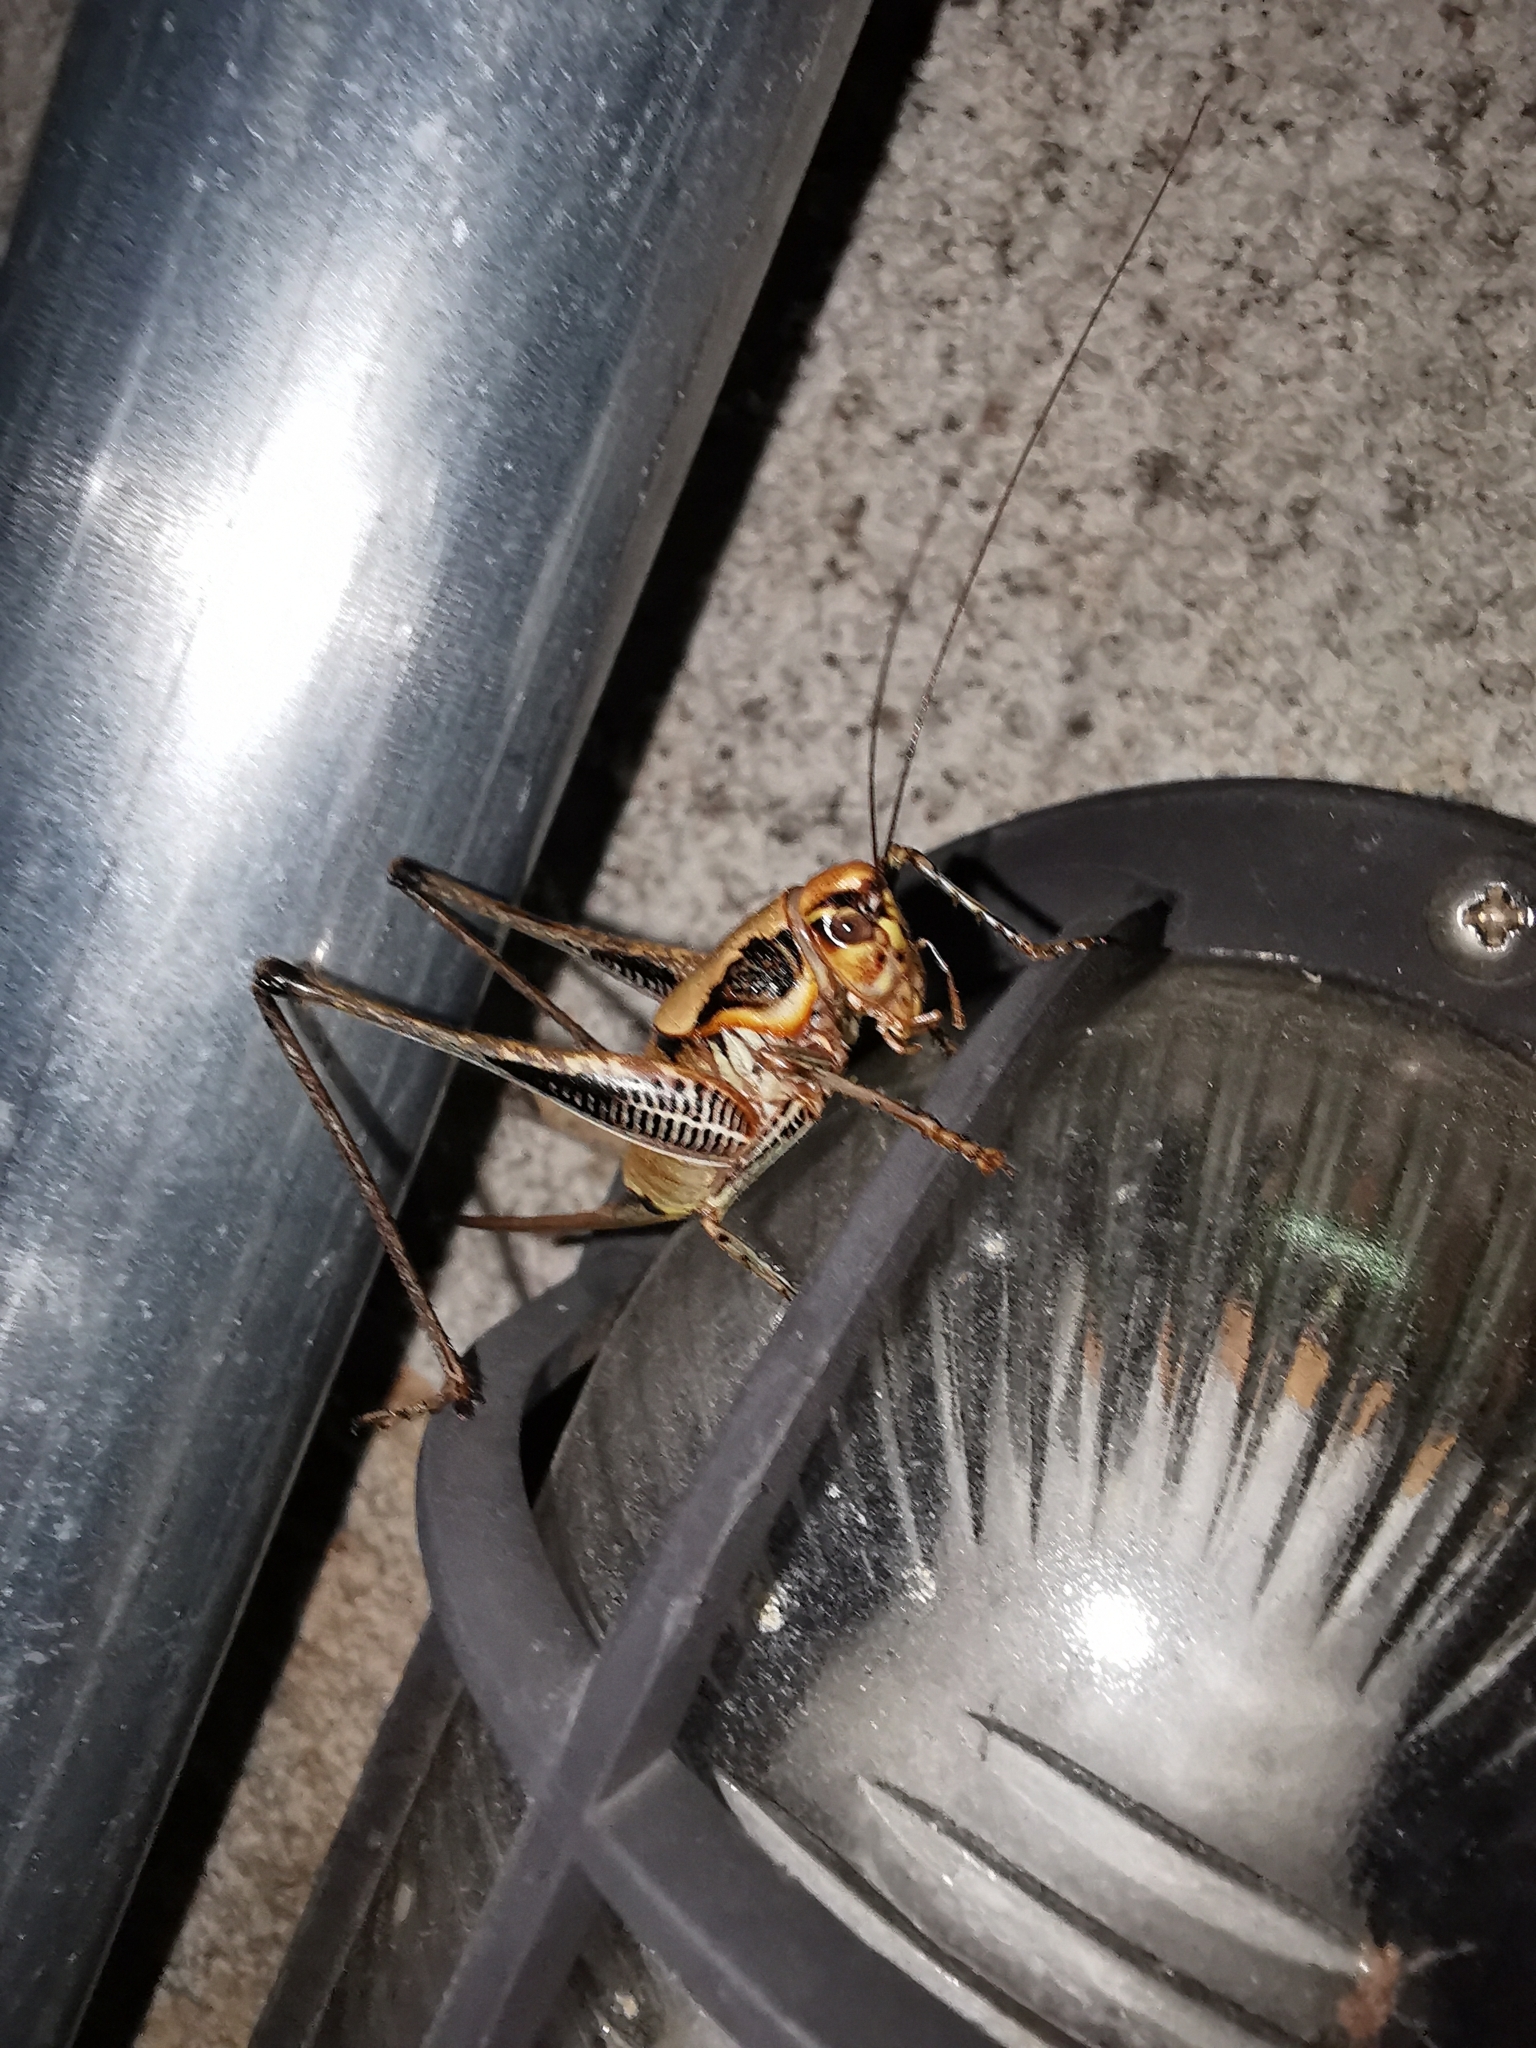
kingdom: Animalia
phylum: Arthropoda
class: Insecta
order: Orthoptera
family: Tettigoniidae
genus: Eupholidoptera
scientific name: Eupholidoptera megastyla
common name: Greek marbled bush-cricket
